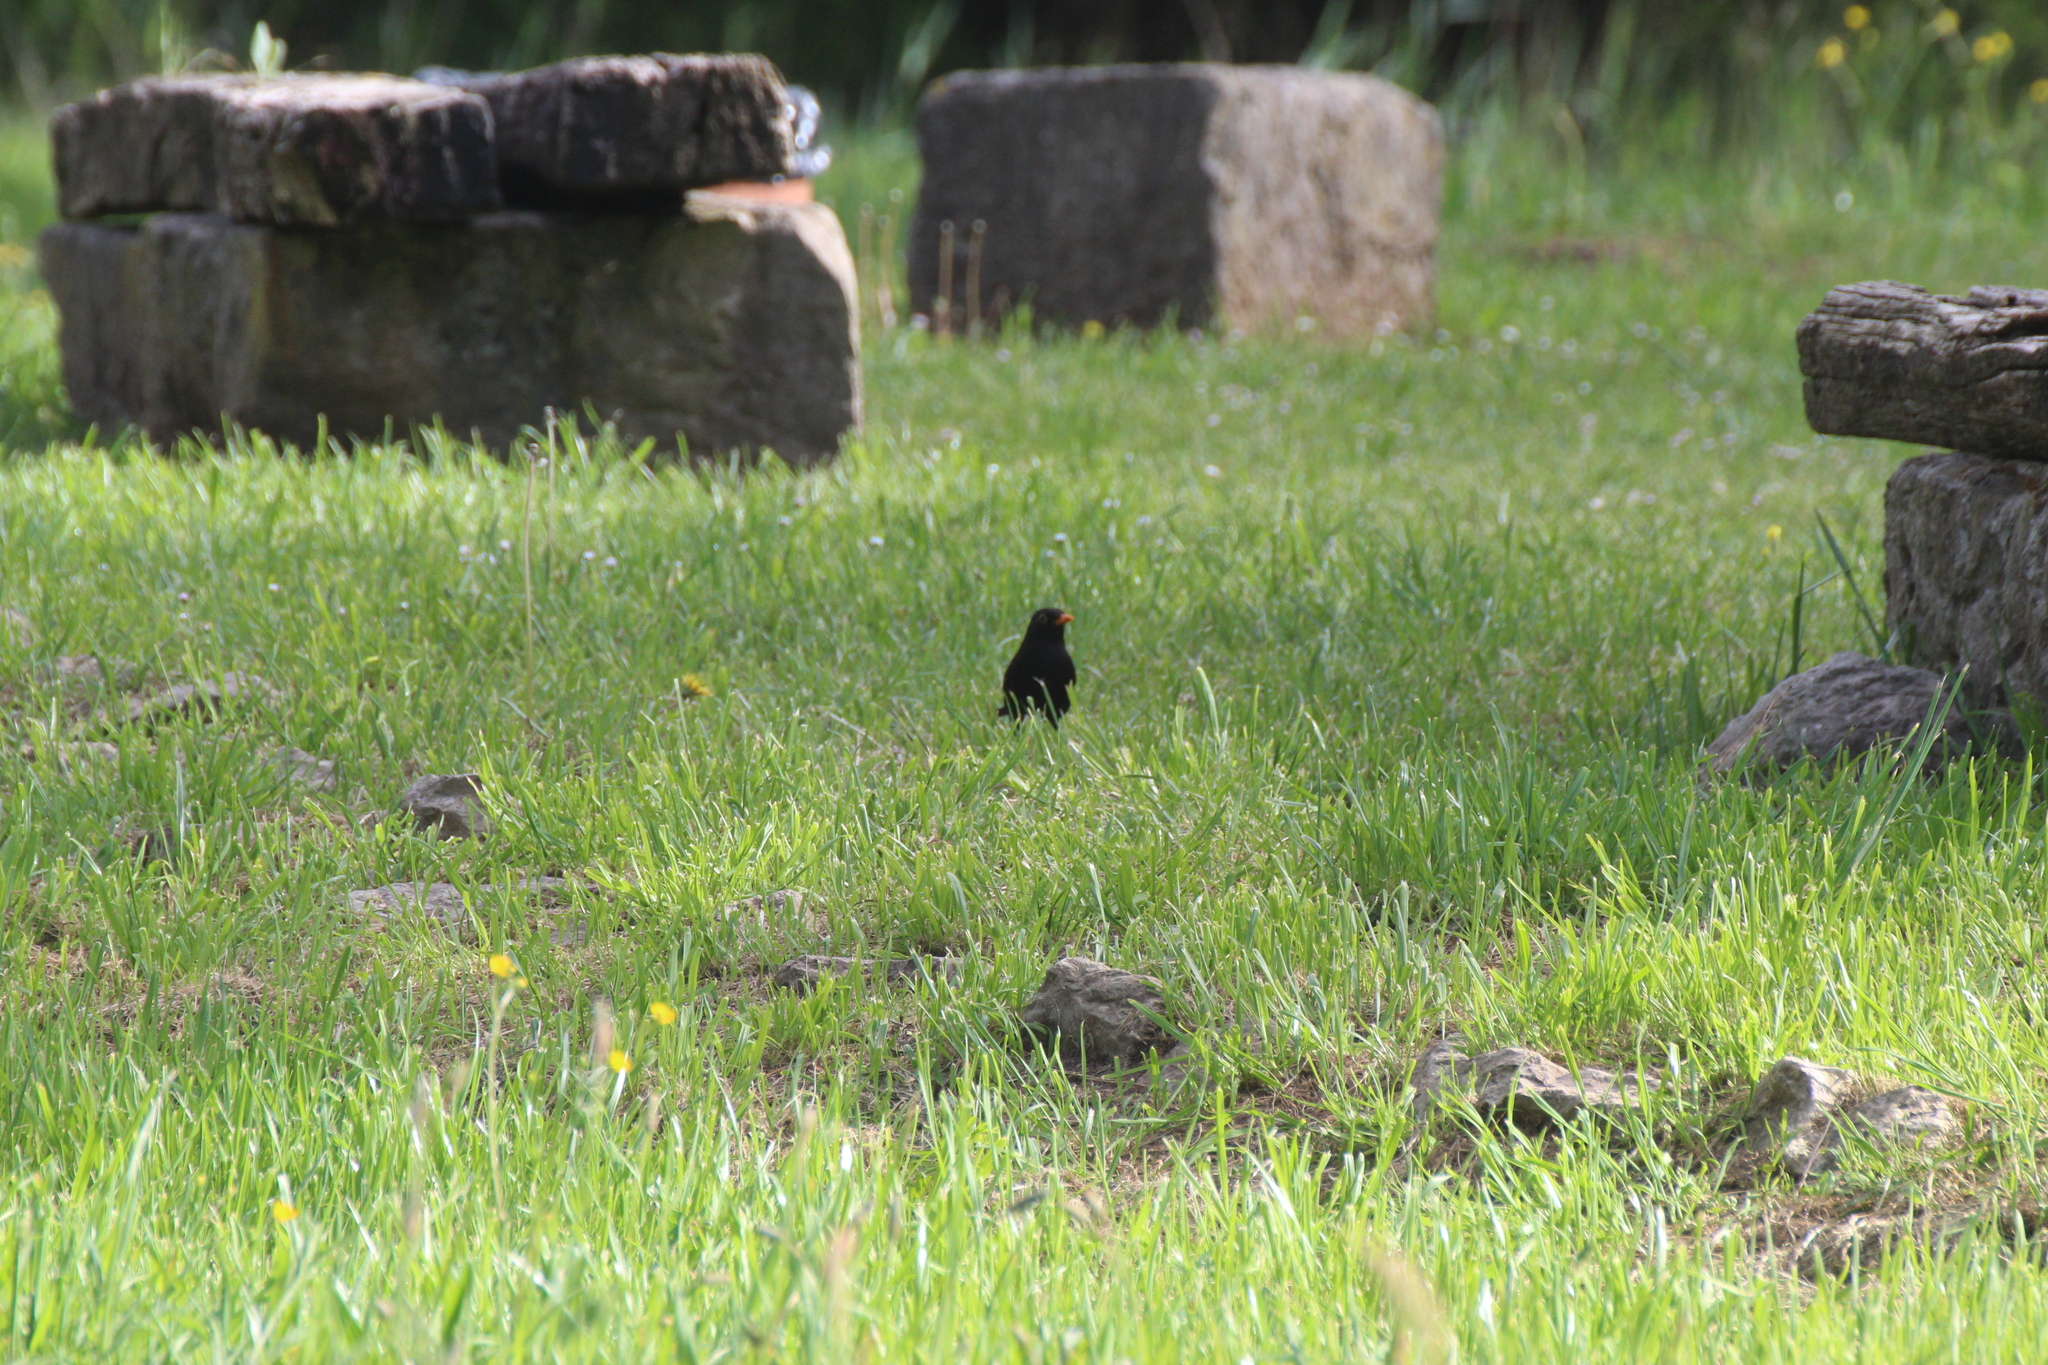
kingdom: Animalia
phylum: Chordata
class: Aves
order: Passeriformes
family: Turdidae
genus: Turdus
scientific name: Turdus merula
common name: Common blackbird
